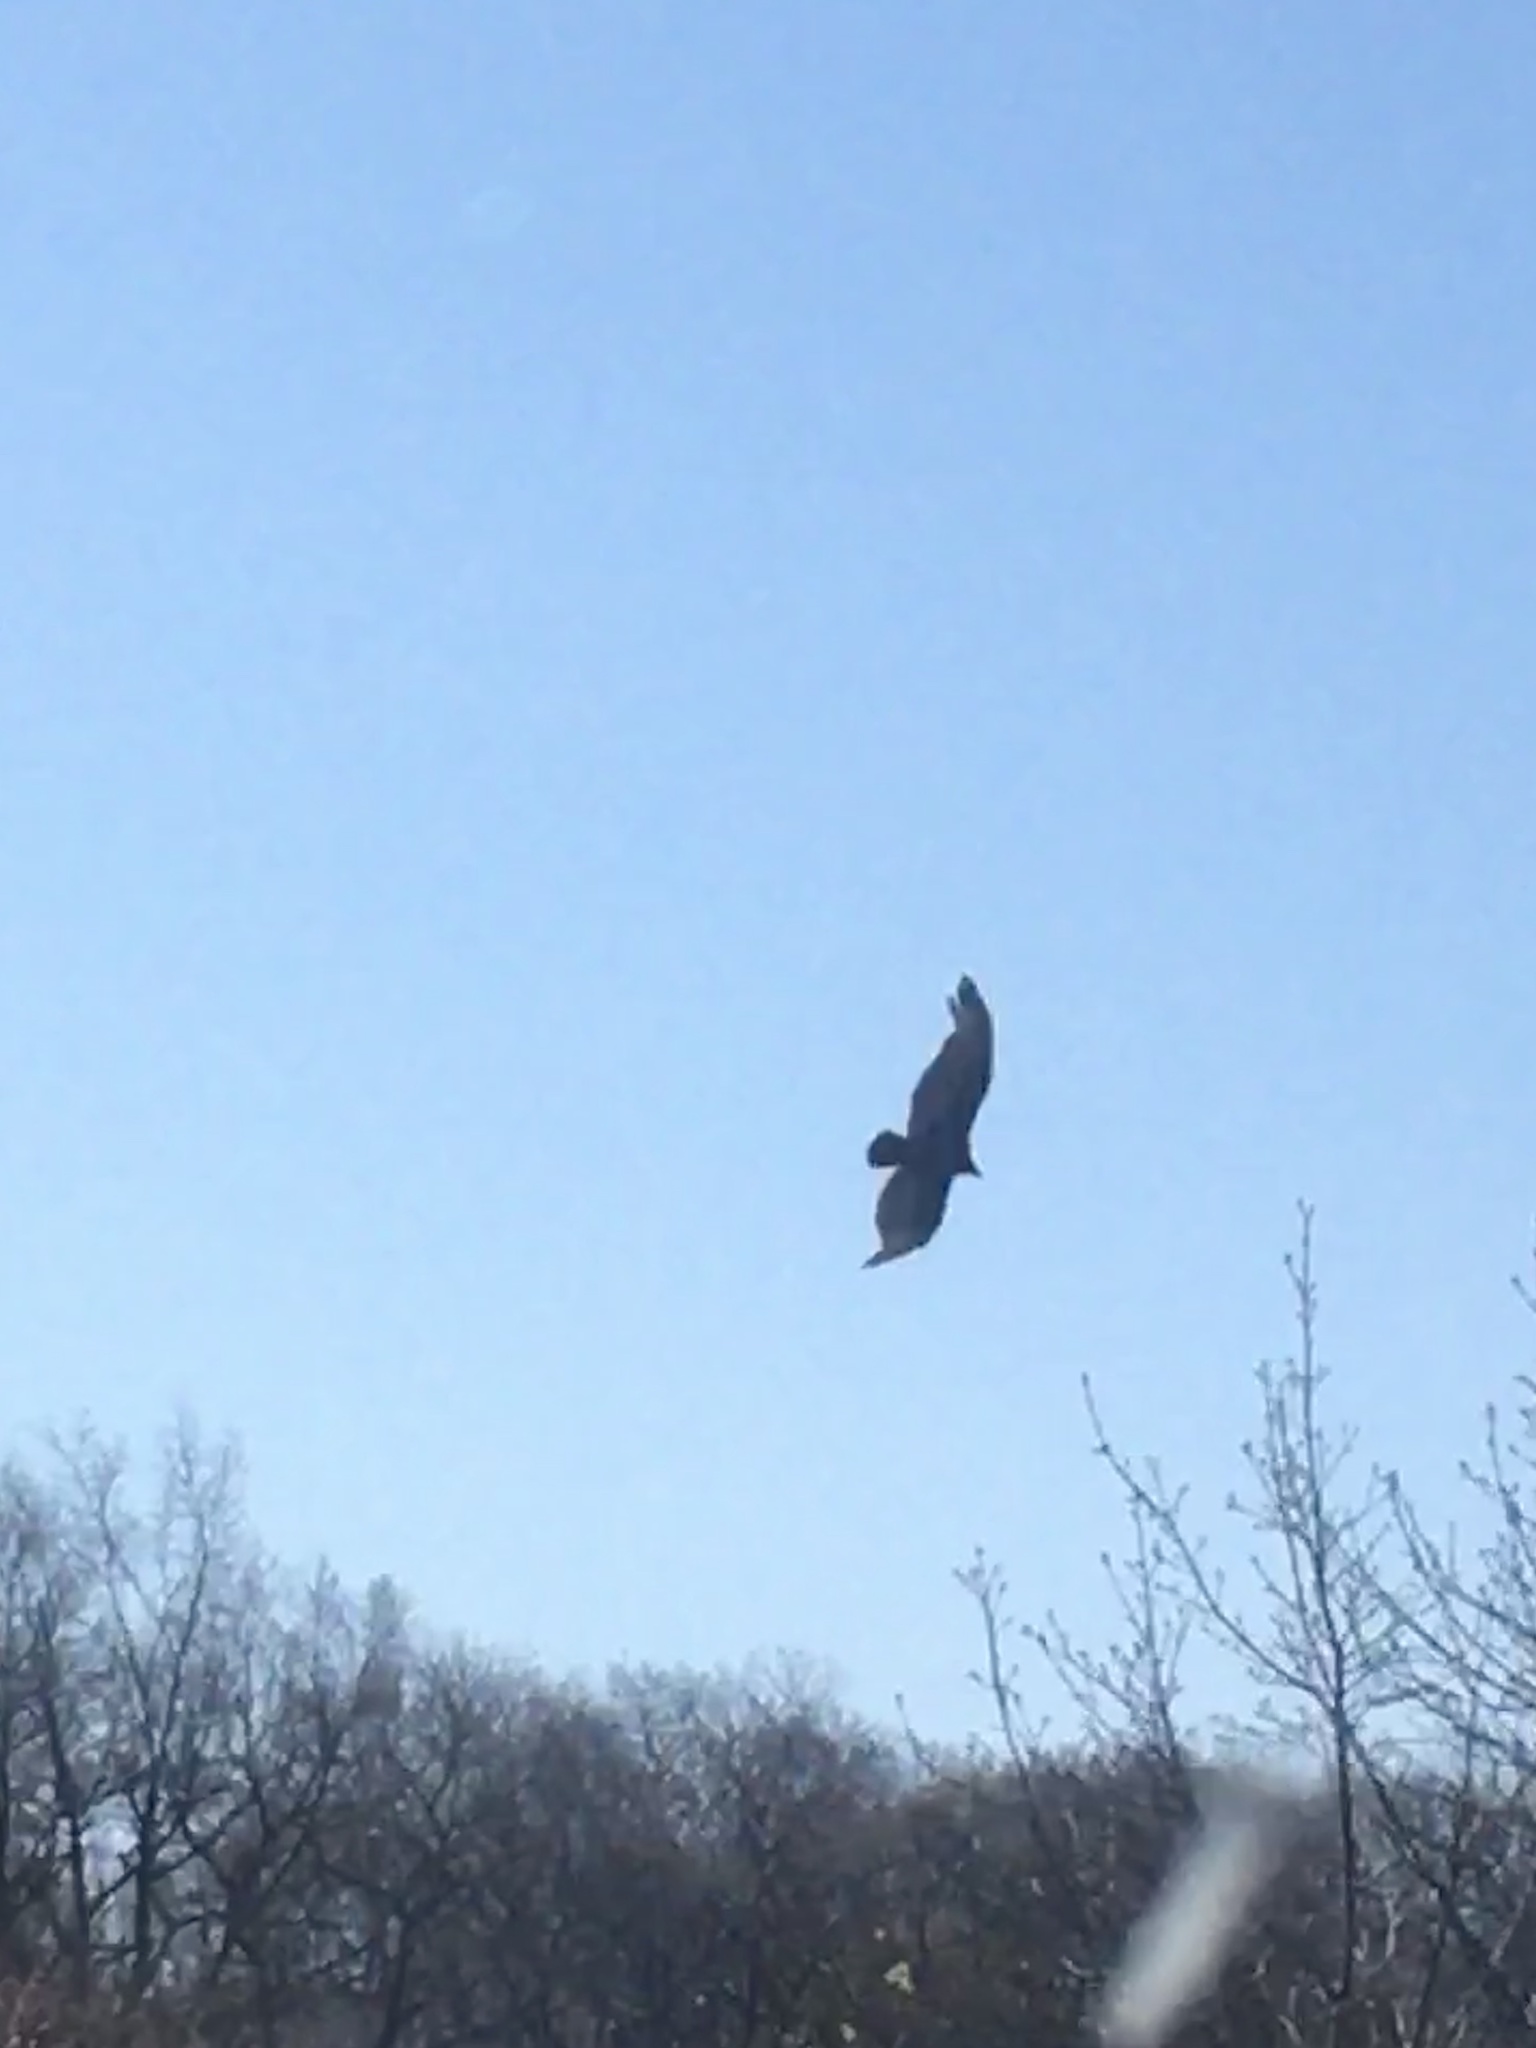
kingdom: Animalia
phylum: Chordata
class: Aves
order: Accipitriformes
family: Cathartidae
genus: Cathartes
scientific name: Cathartes aura
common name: Turkey vulture
